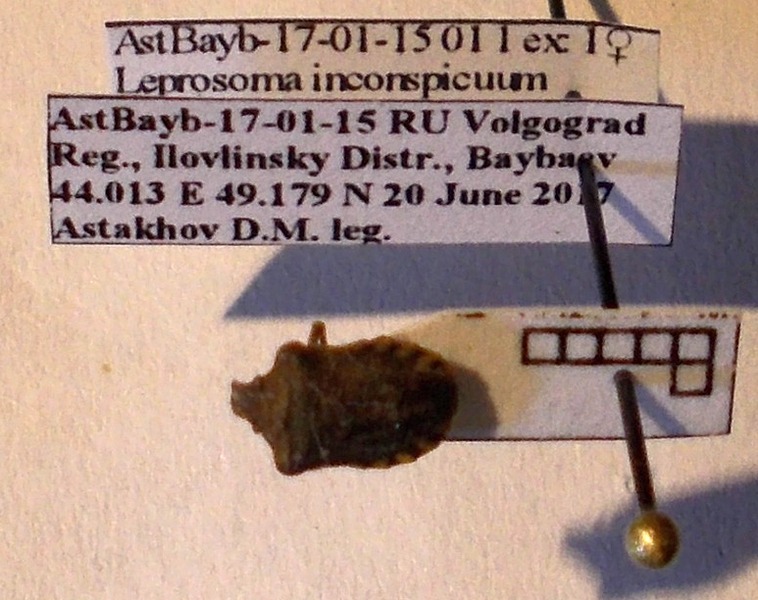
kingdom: Animalia
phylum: Arthropoda
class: Insecta
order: Hemiptera
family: Pentatomidae
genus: Leprosoma
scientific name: Leprosoma inconspicuum
